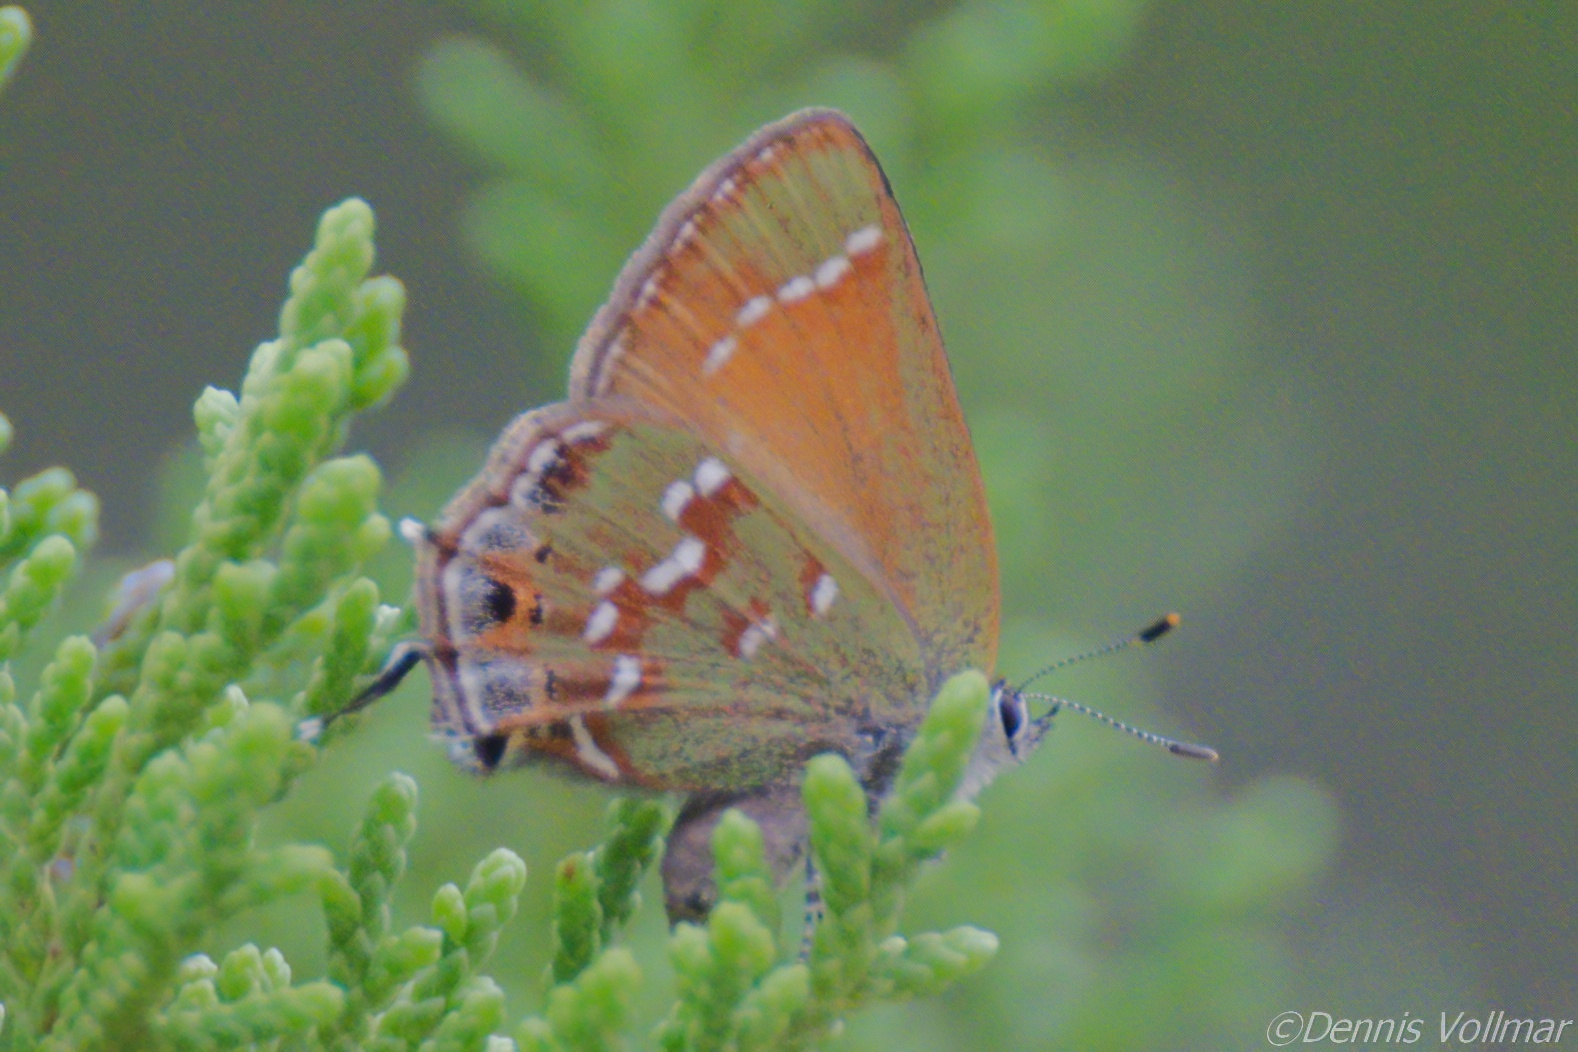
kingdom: Animalia
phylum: Arthropoda
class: Insecta
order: Lepidoptera
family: Lycaenidae
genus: Mitoura
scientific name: Mitoura gryneus
